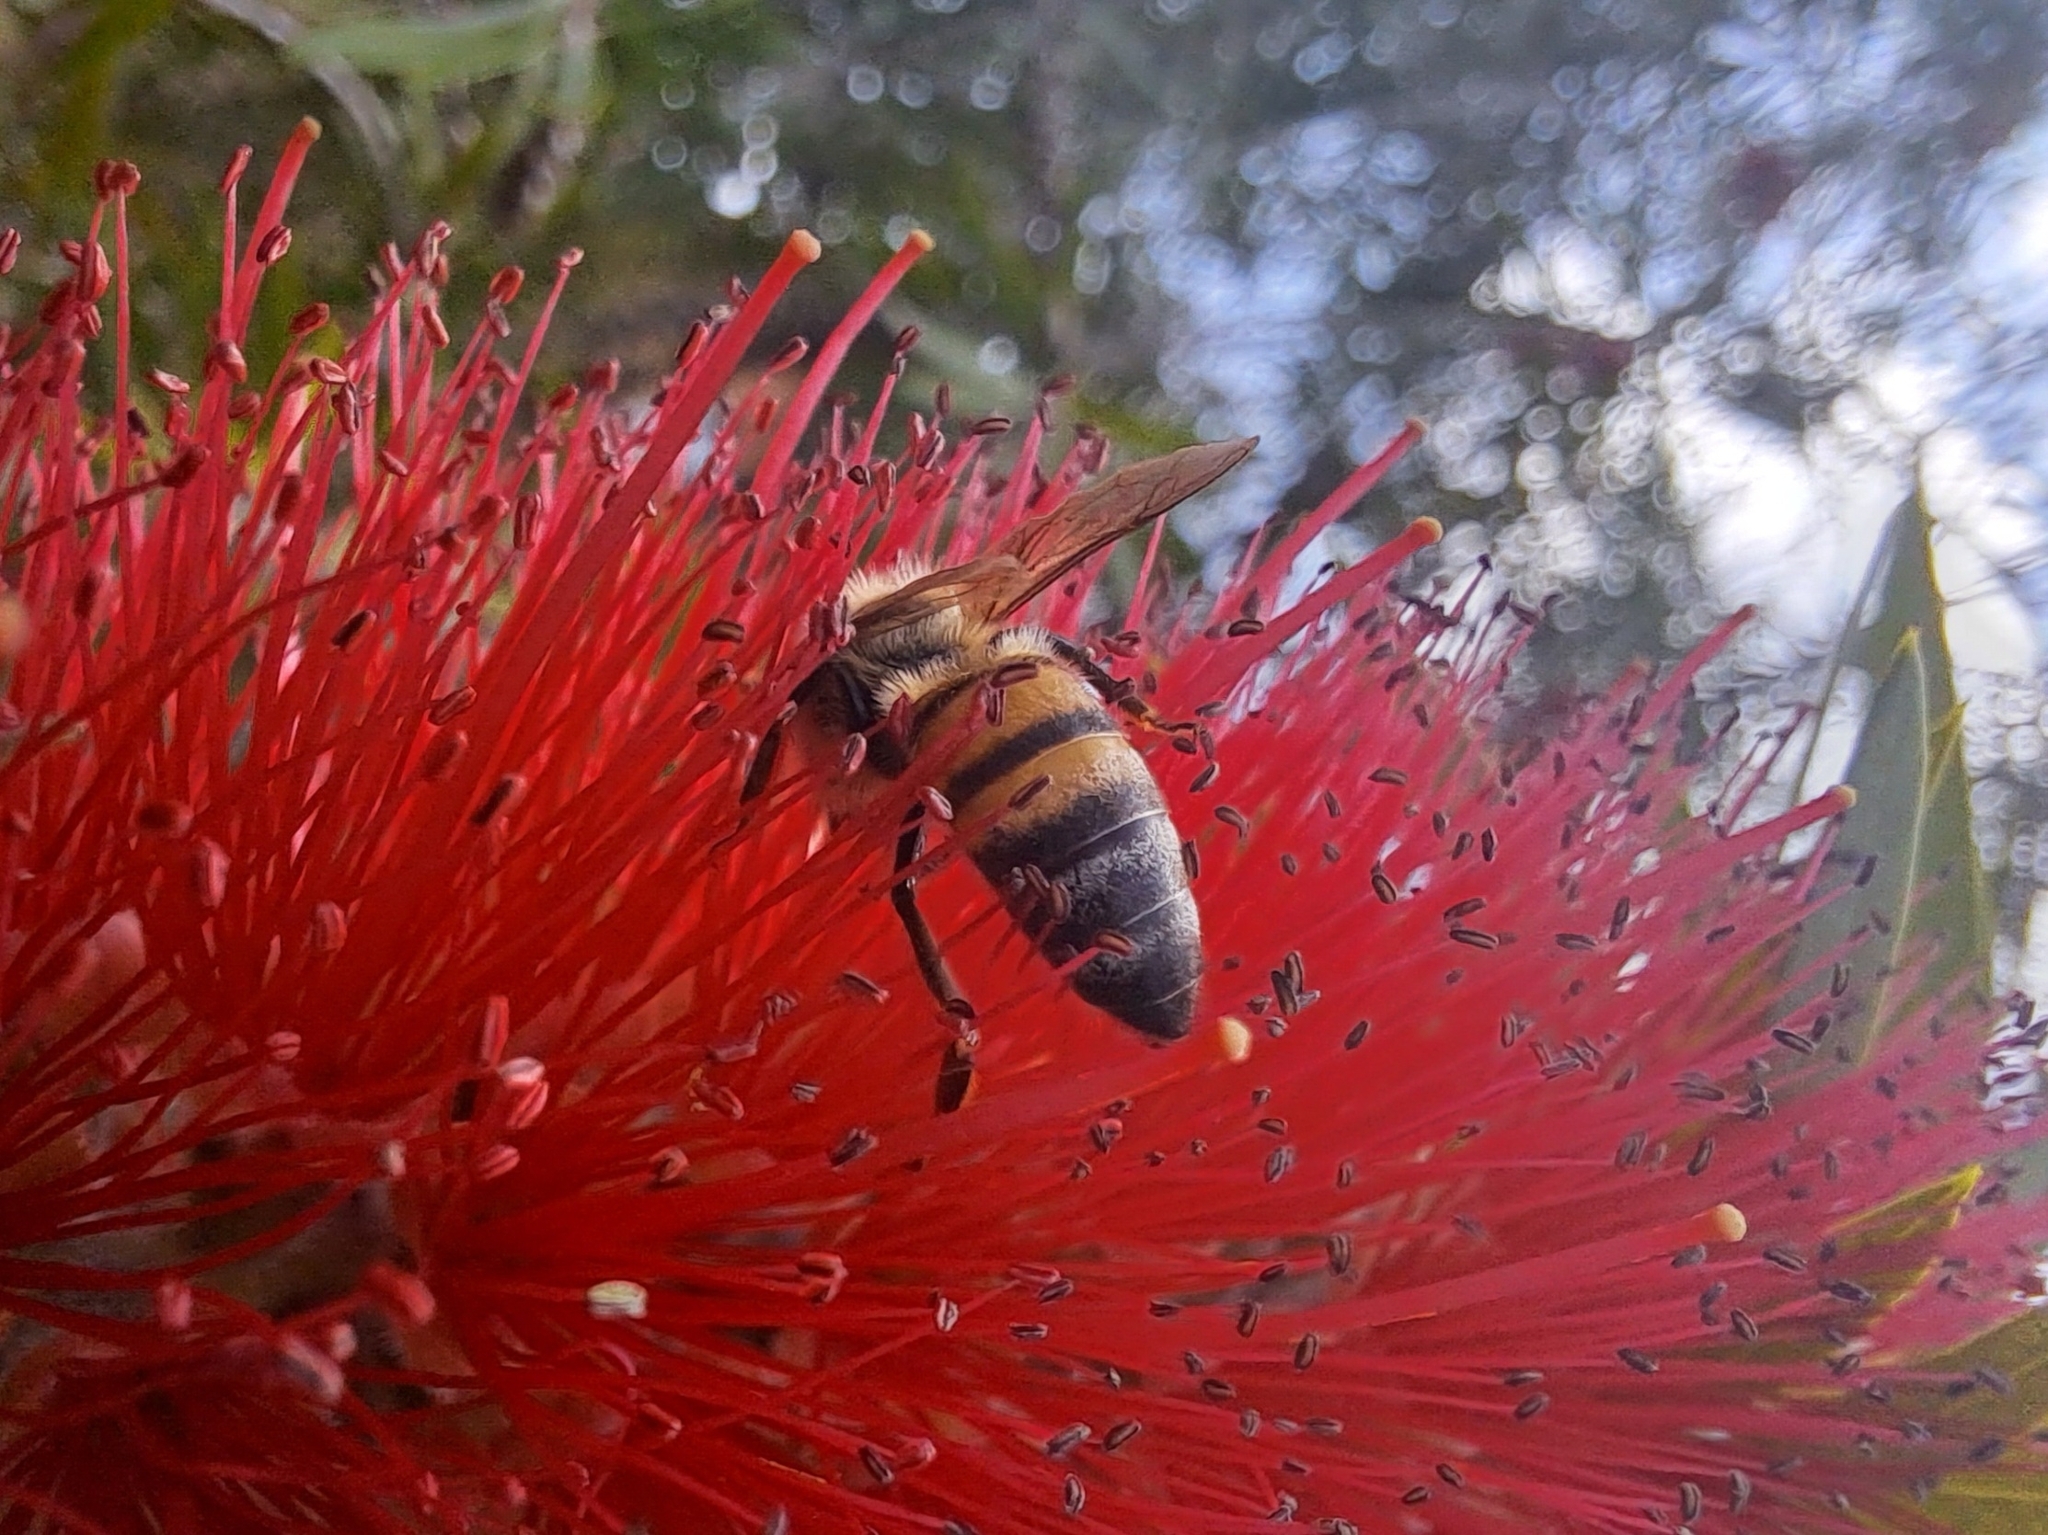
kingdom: Animalia
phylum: Arthropoda
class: Insecta
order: Hymenoptera
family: Apidae
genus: Apis
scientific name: Apis mellifera
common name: Honey bee
